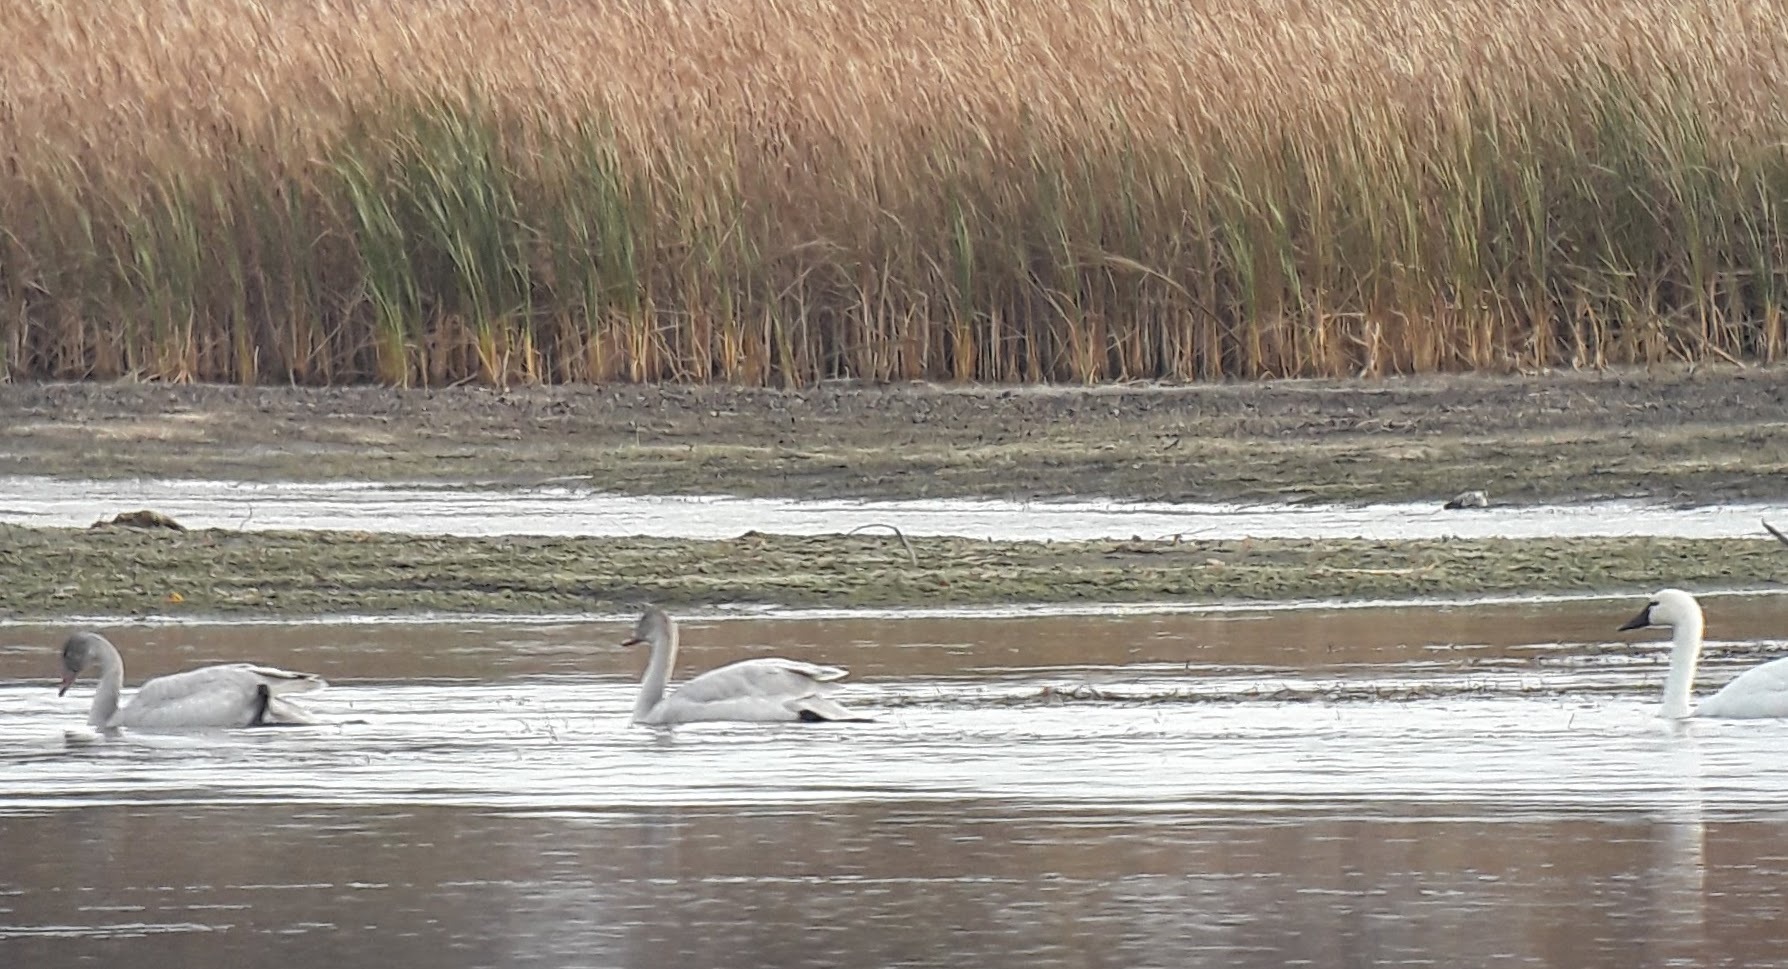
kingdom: Animalia
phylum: Chordata
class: Aves
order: Anseriformes
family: Anatidae
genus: Cygnus
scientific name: Cygnus buccinator
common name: Trumpeter swan
